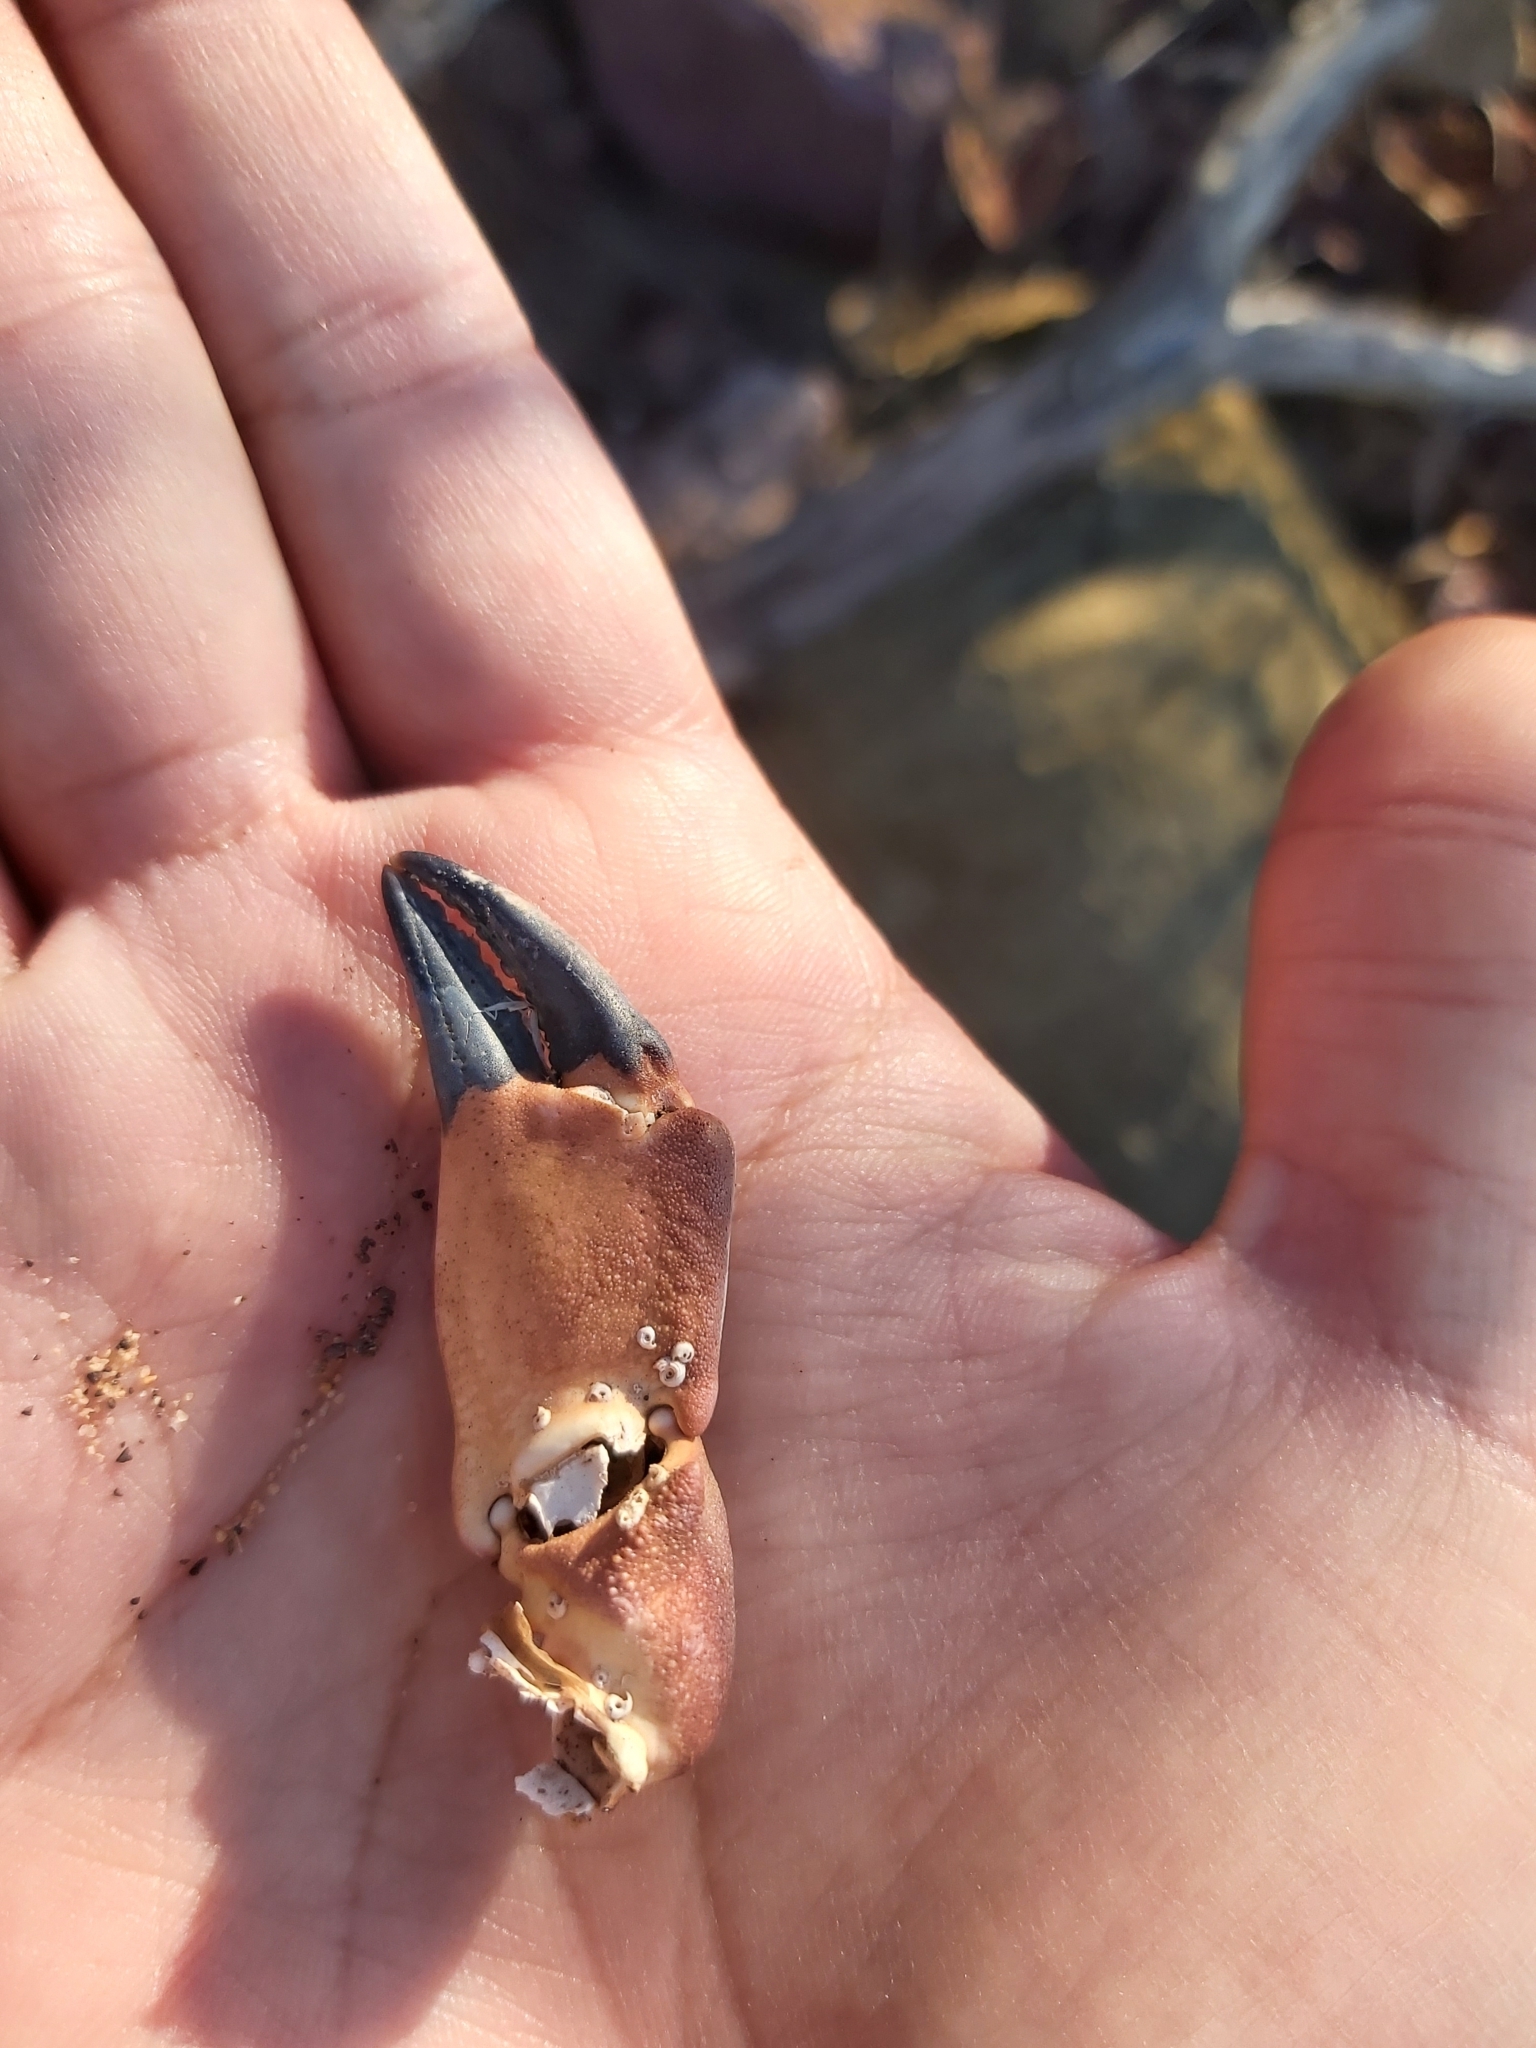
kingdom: Animalia
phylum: Arthropoda
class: Malacostraca
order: Decapoda
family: Oziidae
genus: Ozius
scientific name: Ozius truncatus
